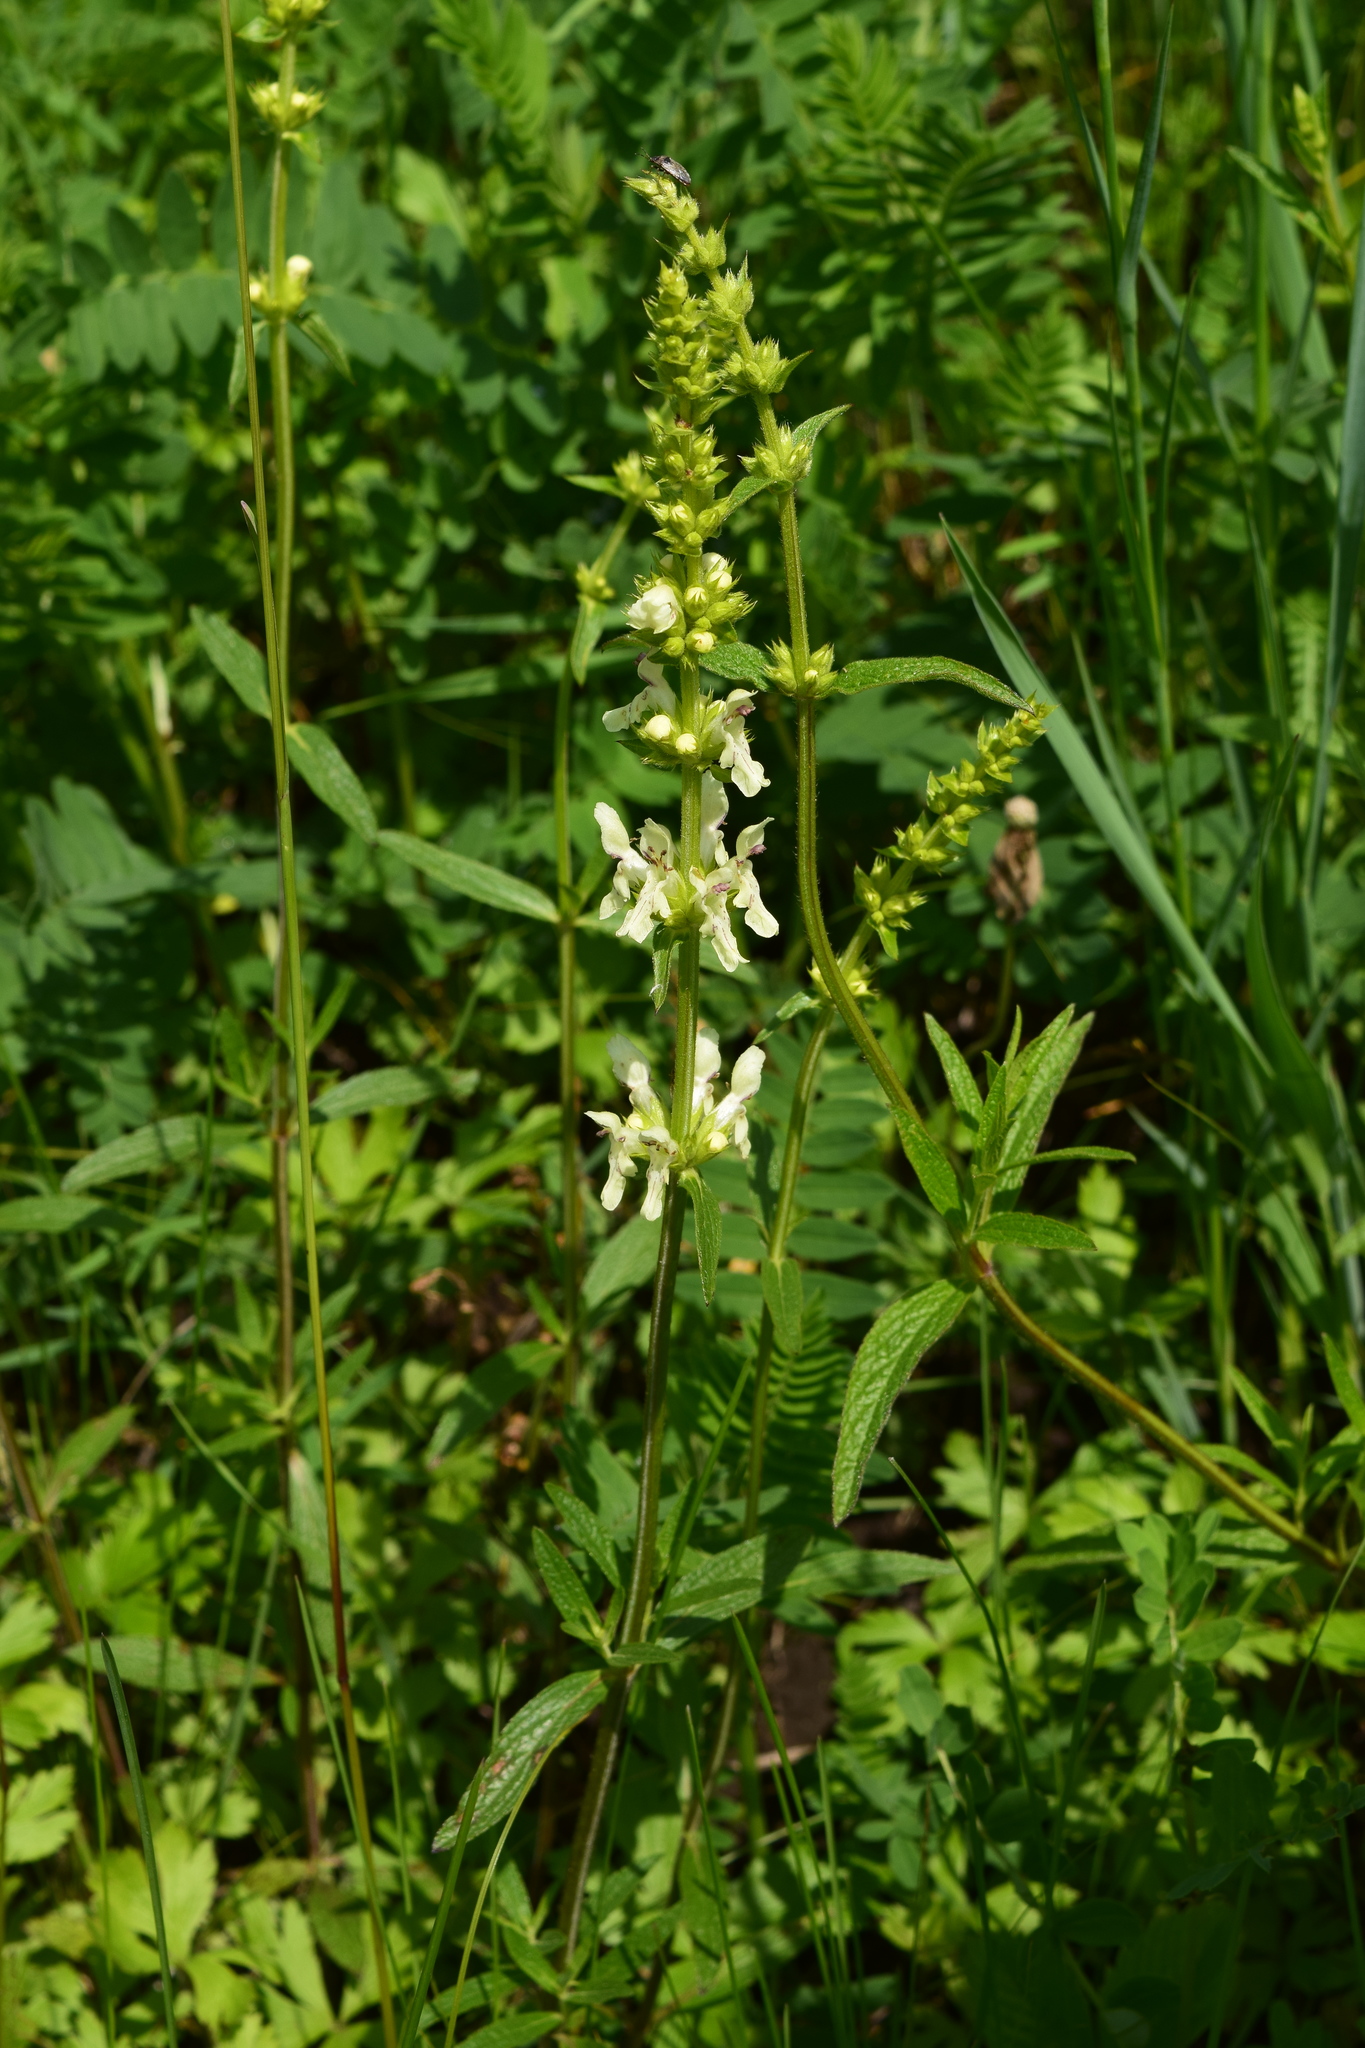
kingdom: Plantae
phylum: Tracheophyta
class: Magnoliopsida
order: Lamiales
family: Lamiaceae
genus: Stachys
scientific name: Stachys recta
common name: Perennial yellow-woundwort
